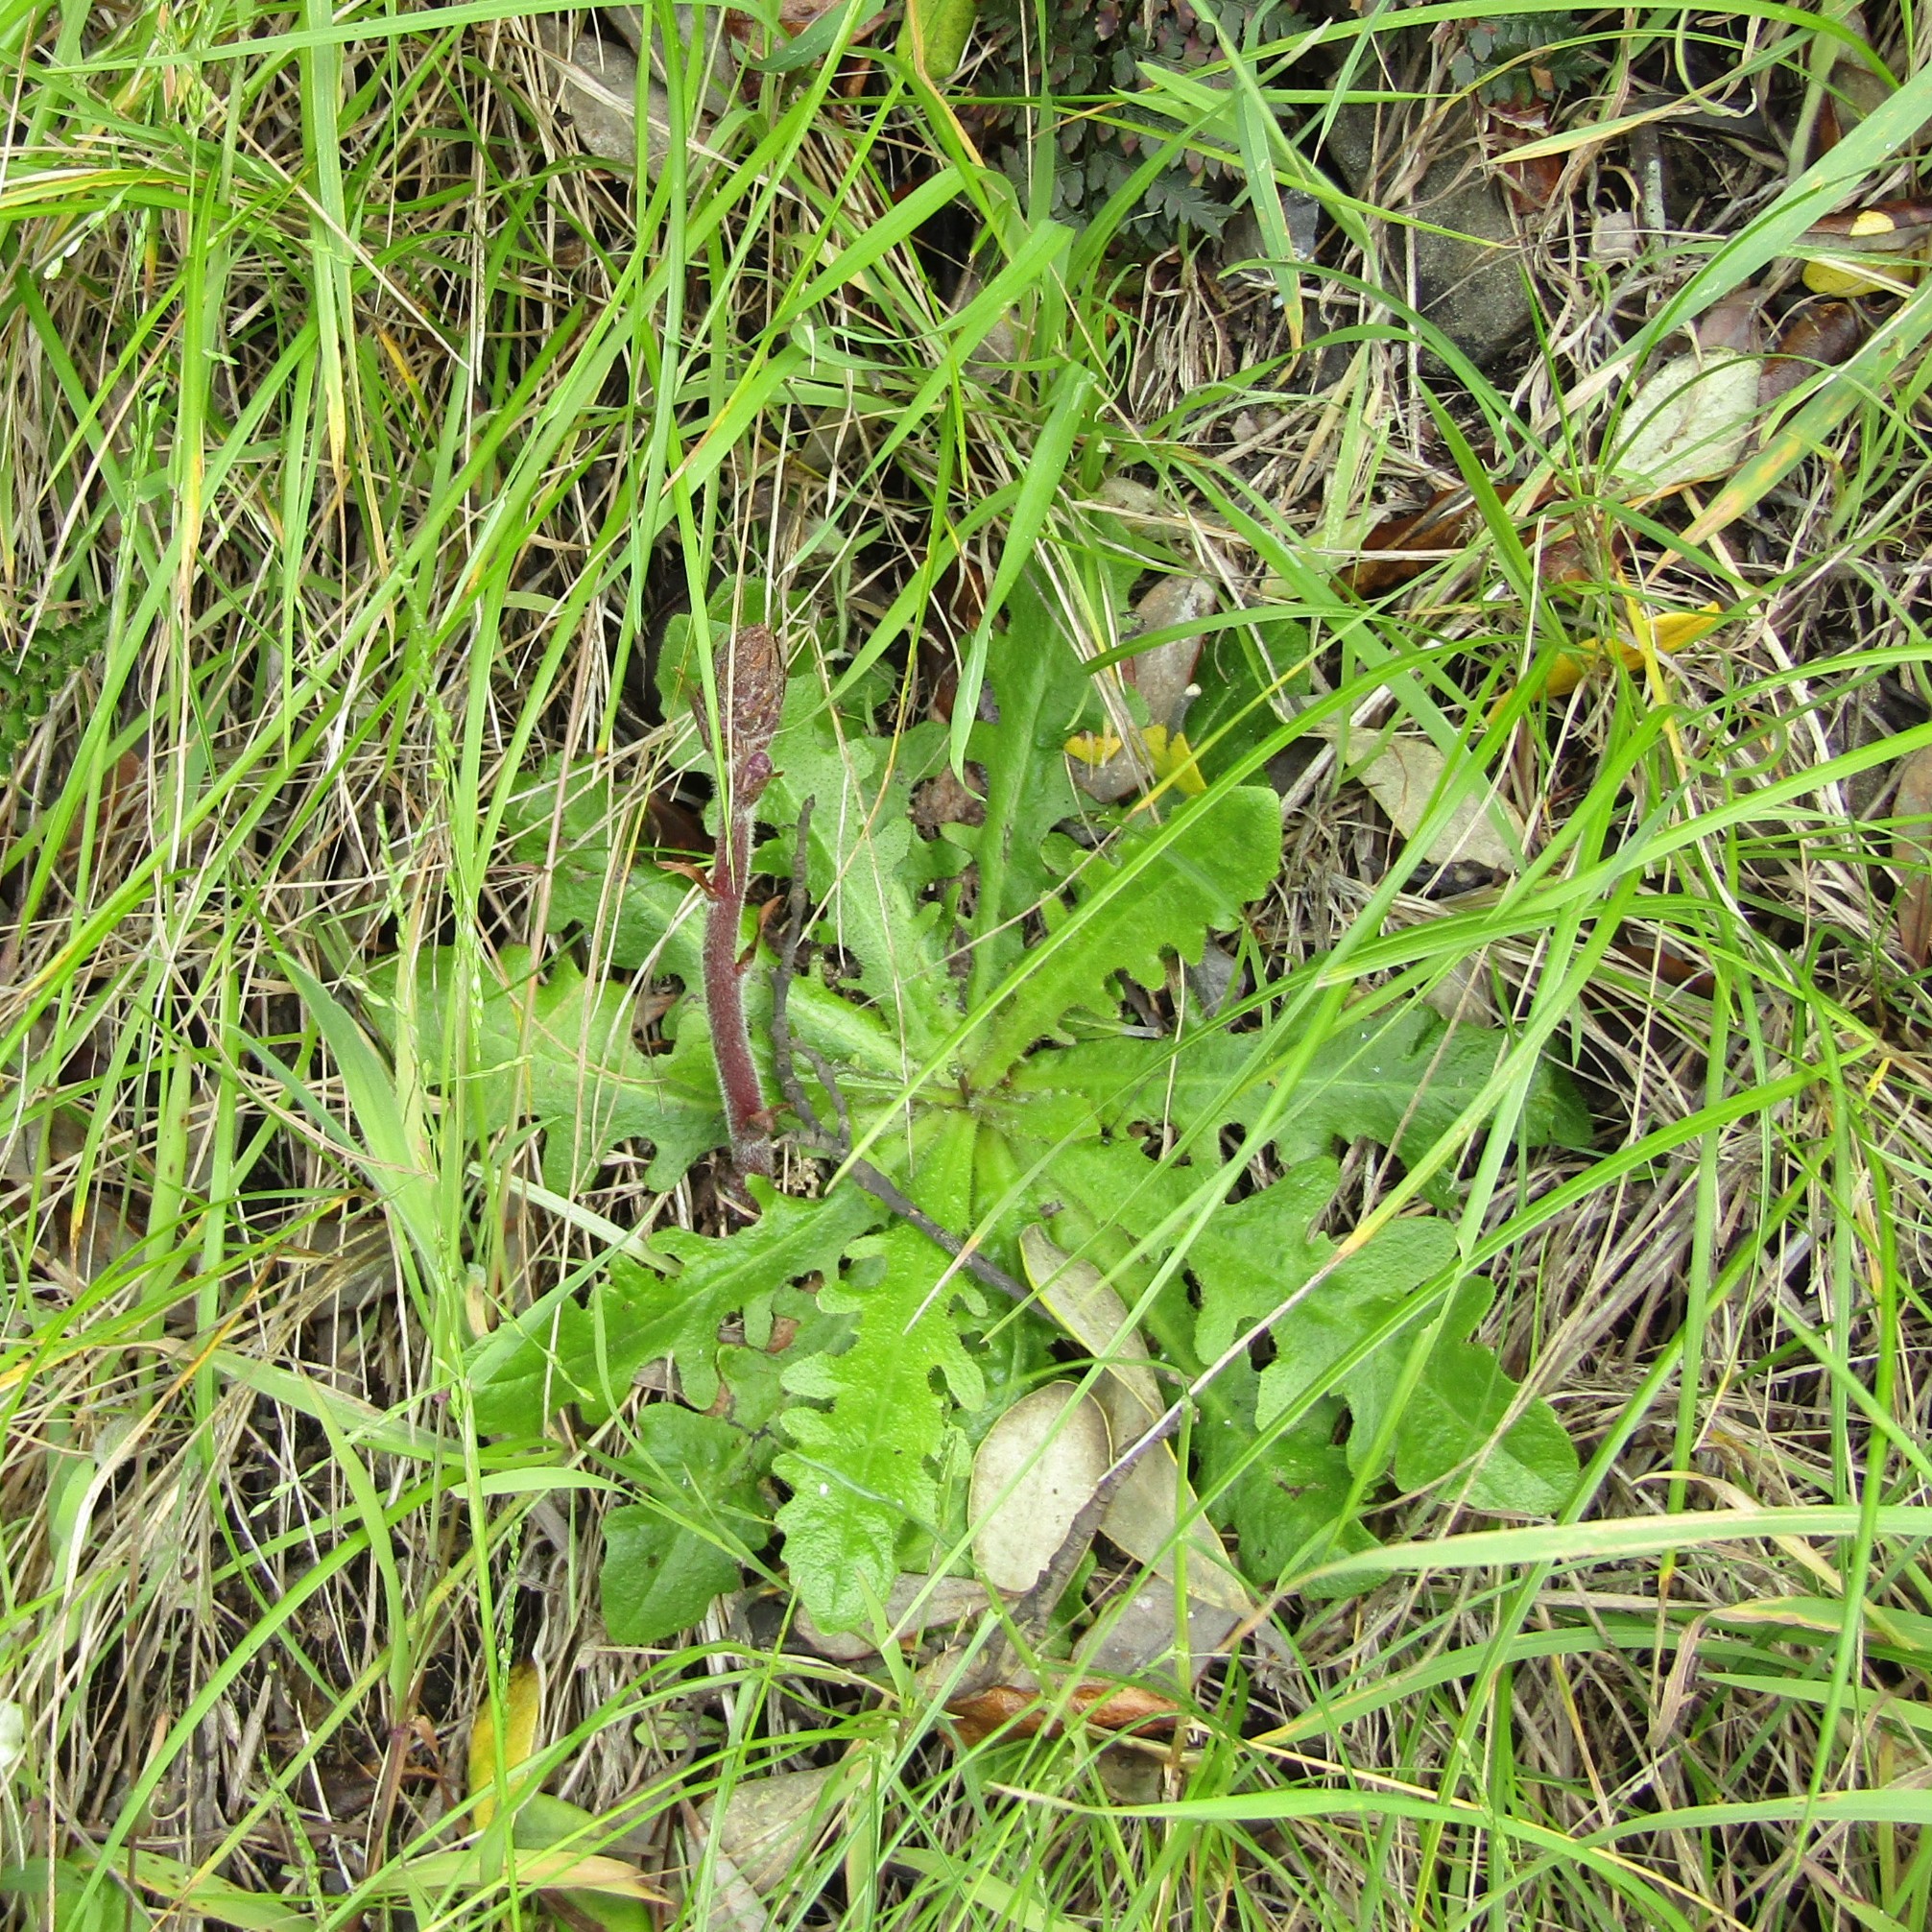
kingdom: Plantae
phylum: Tracheophyta
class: Magnoliopsida
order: Lamiales
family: Orobanchaceae
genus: Orobanche
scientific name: Orobanche minor
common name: Common broomrape
